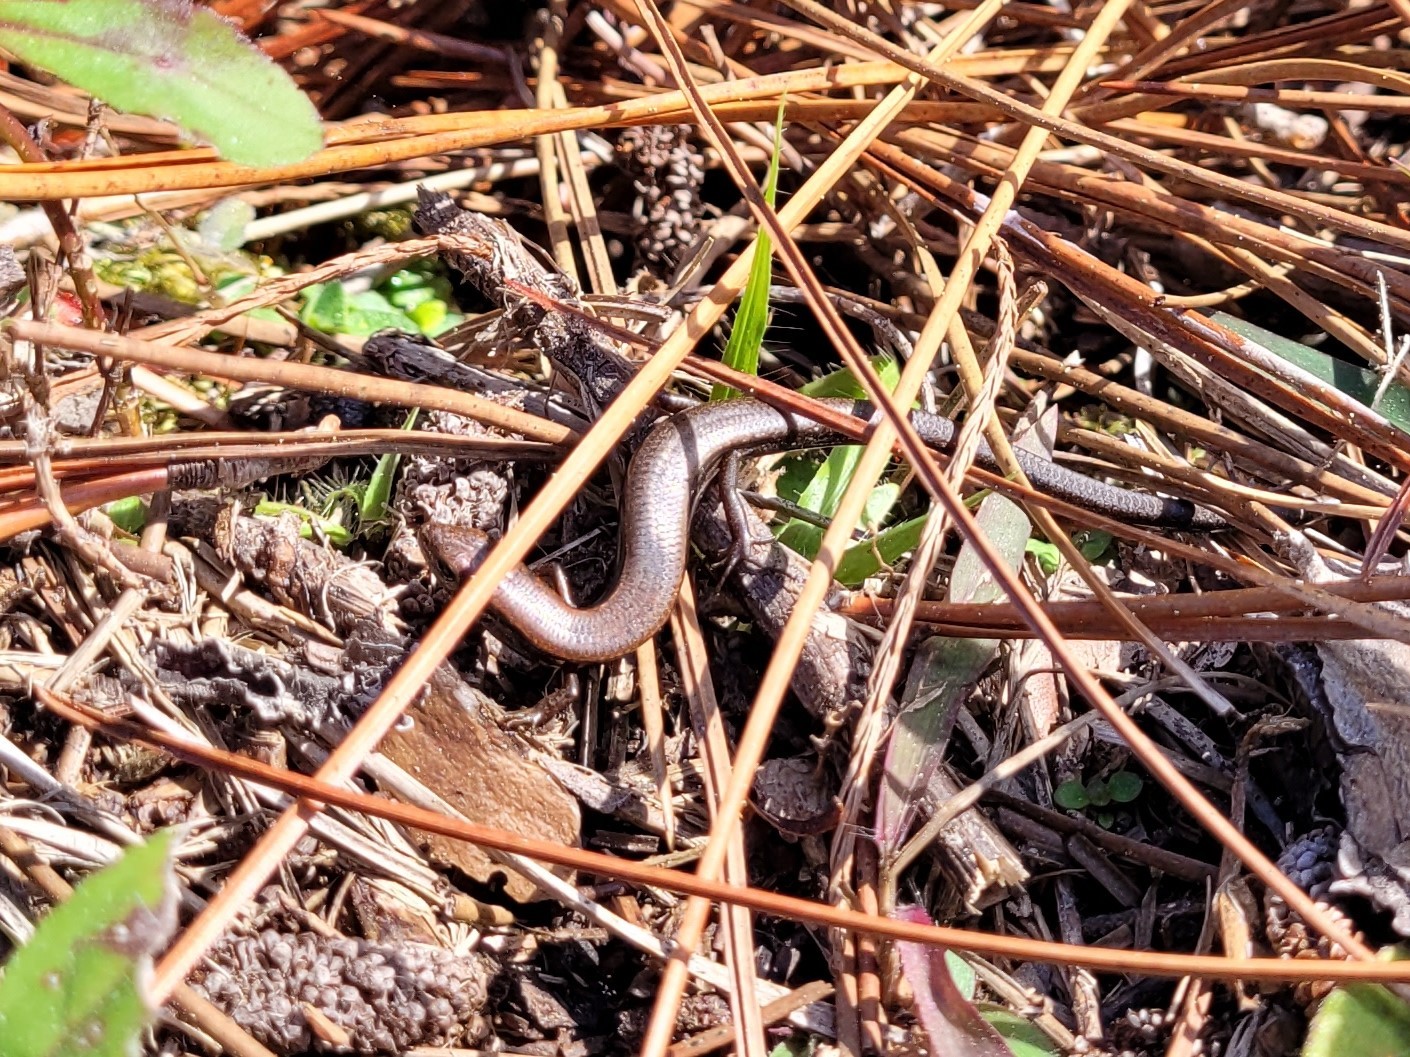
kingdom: Animalia
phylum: Chordata
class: Squamata
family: Scincidae
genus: Scincella
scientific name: Scincella lateralis
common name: Ground skink
